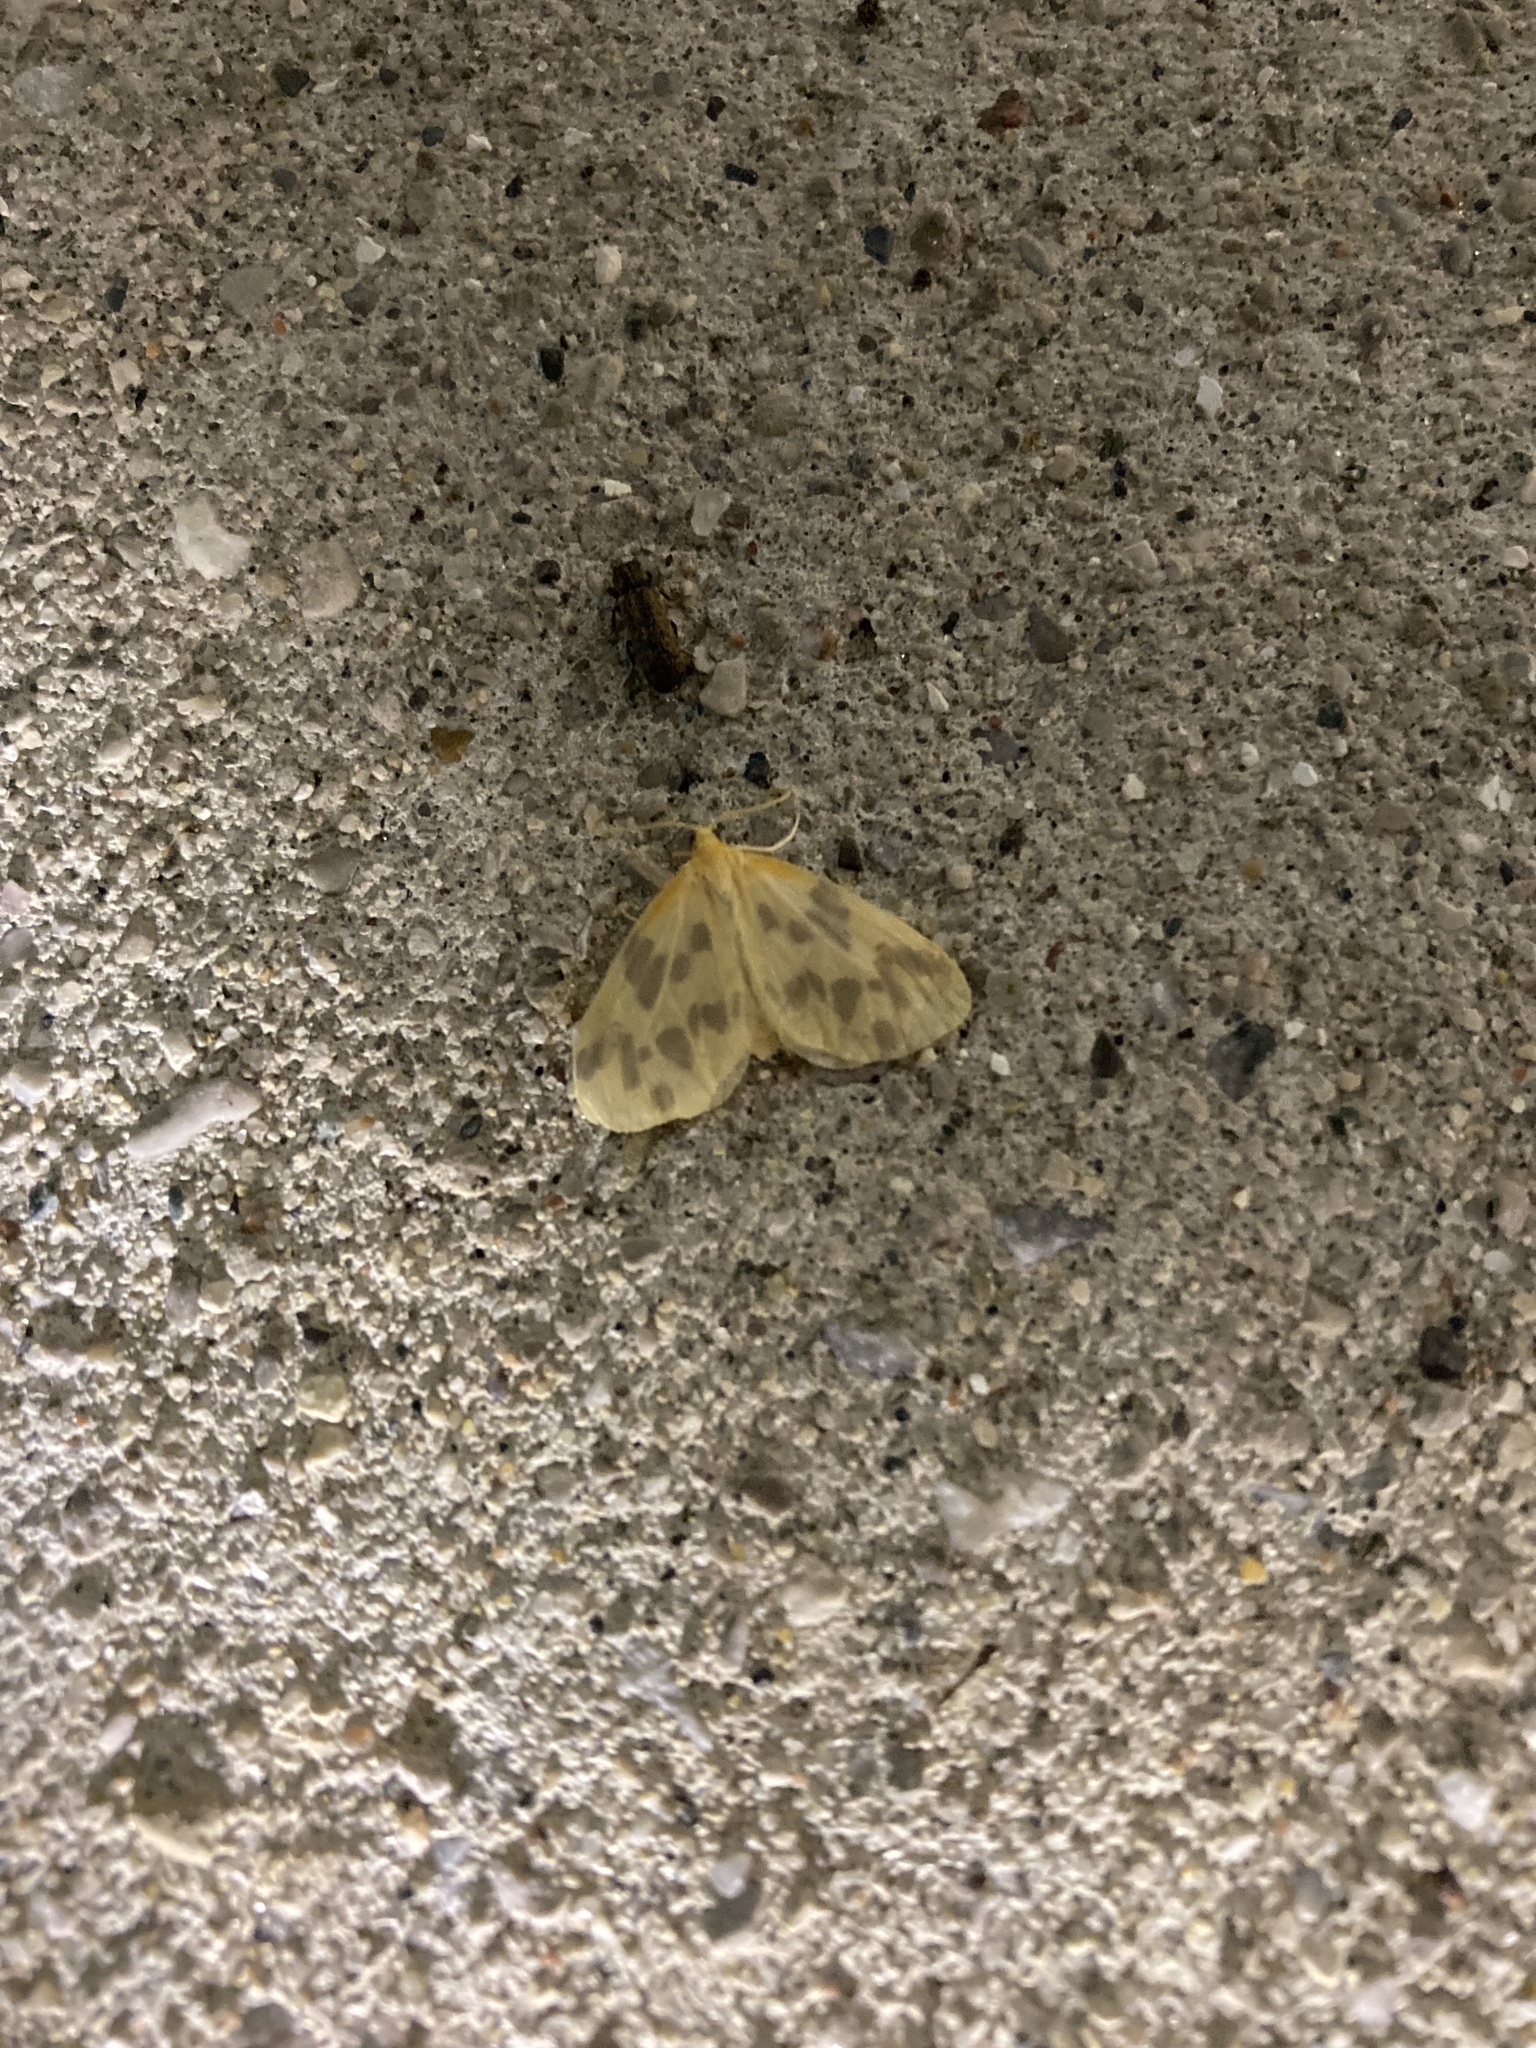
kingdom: Animalia
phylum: Arthropoda
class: Insecta
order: Lepidoptera
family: Geometridae
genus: Eubaphe
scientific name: Eubaphe mendica
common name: Beggar
